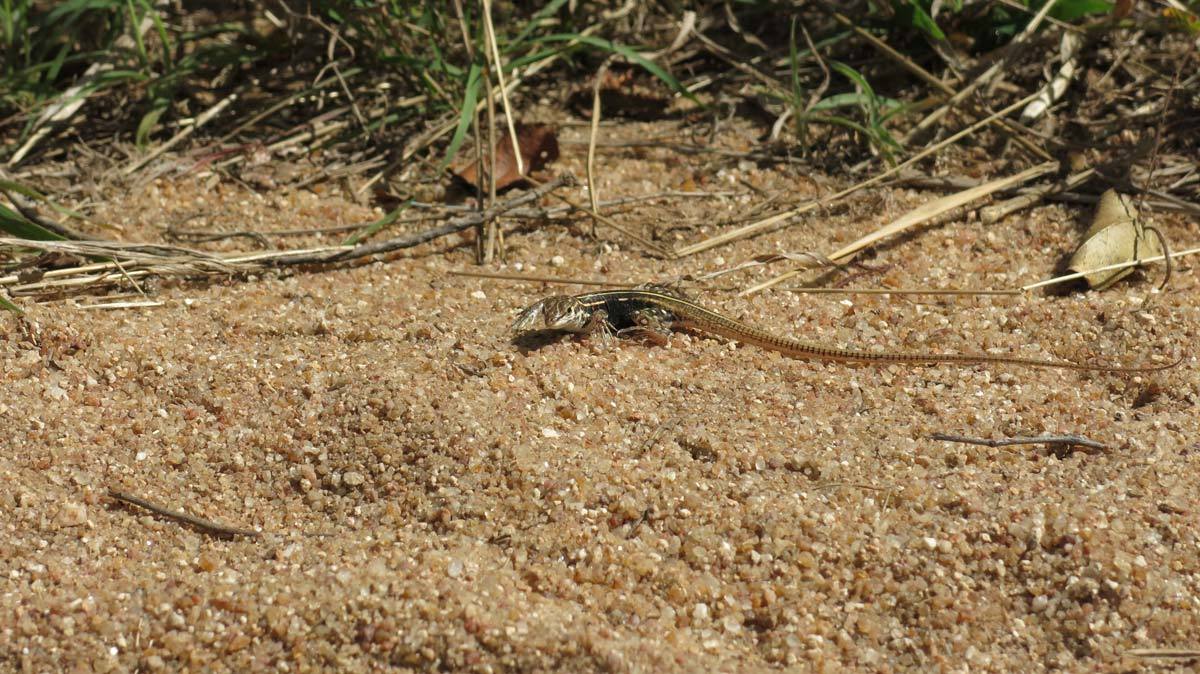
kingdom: Animalia
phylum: Chordata
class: Squamata
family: Lacertidae
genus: Heliobolus
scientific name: Heliobolus lugubris
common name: Bushveld lizard
